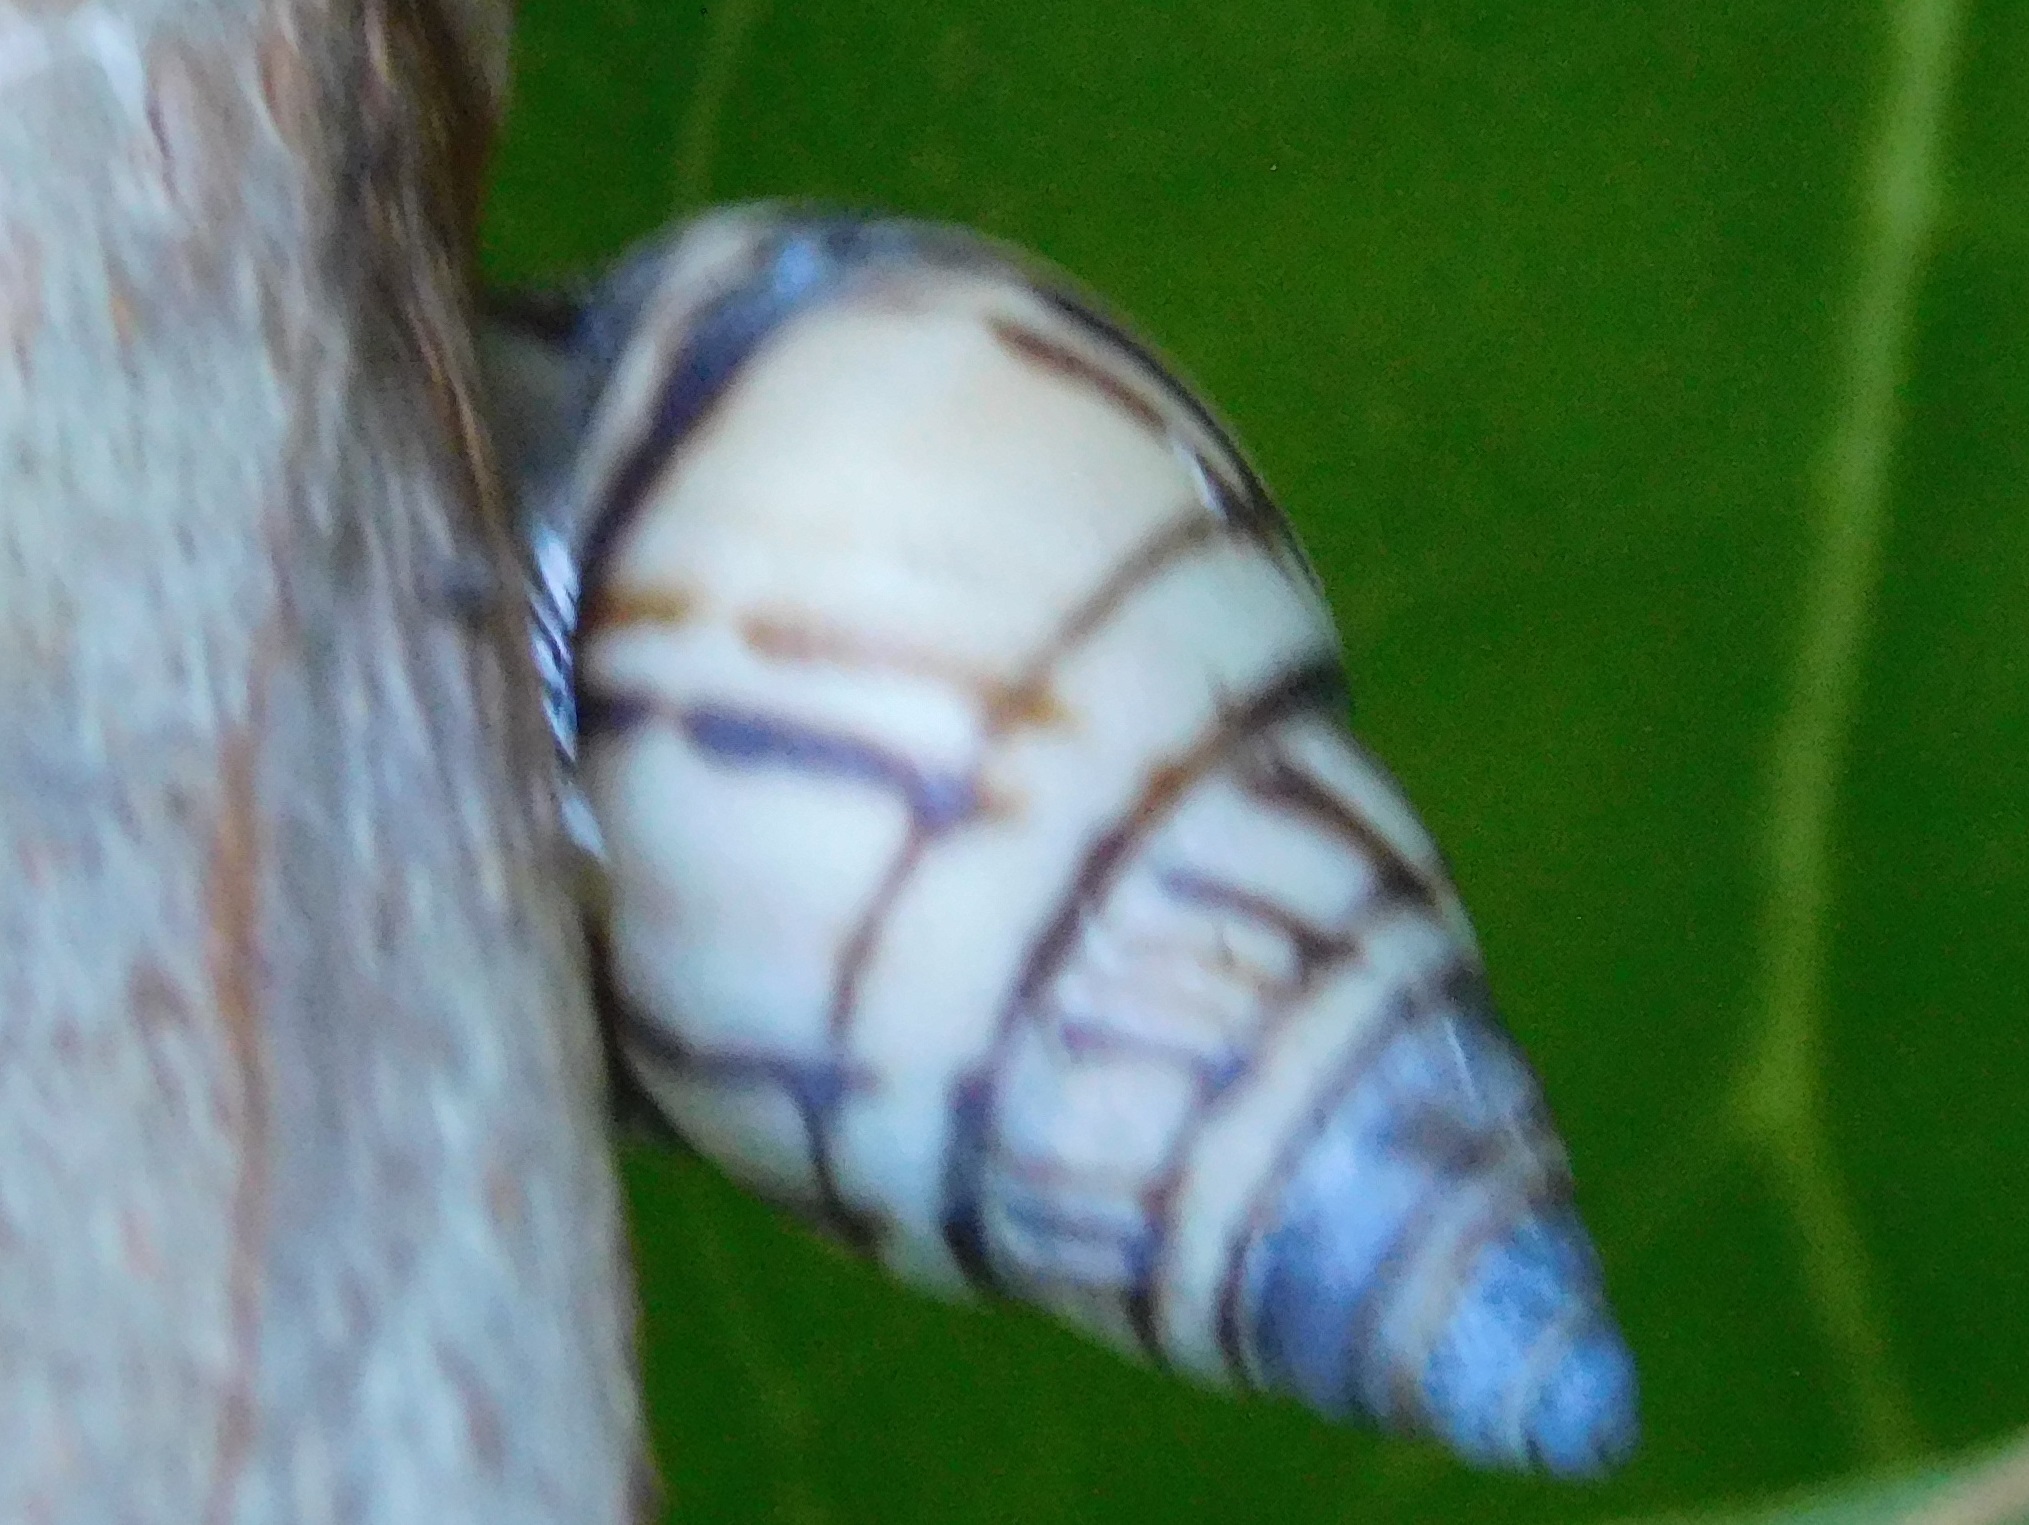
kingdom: Animalia
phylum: Mollusca
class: Gastropoda
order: Stylommatophora
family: Bulimulidae
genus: Drymaeus
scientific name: Drymaeus
